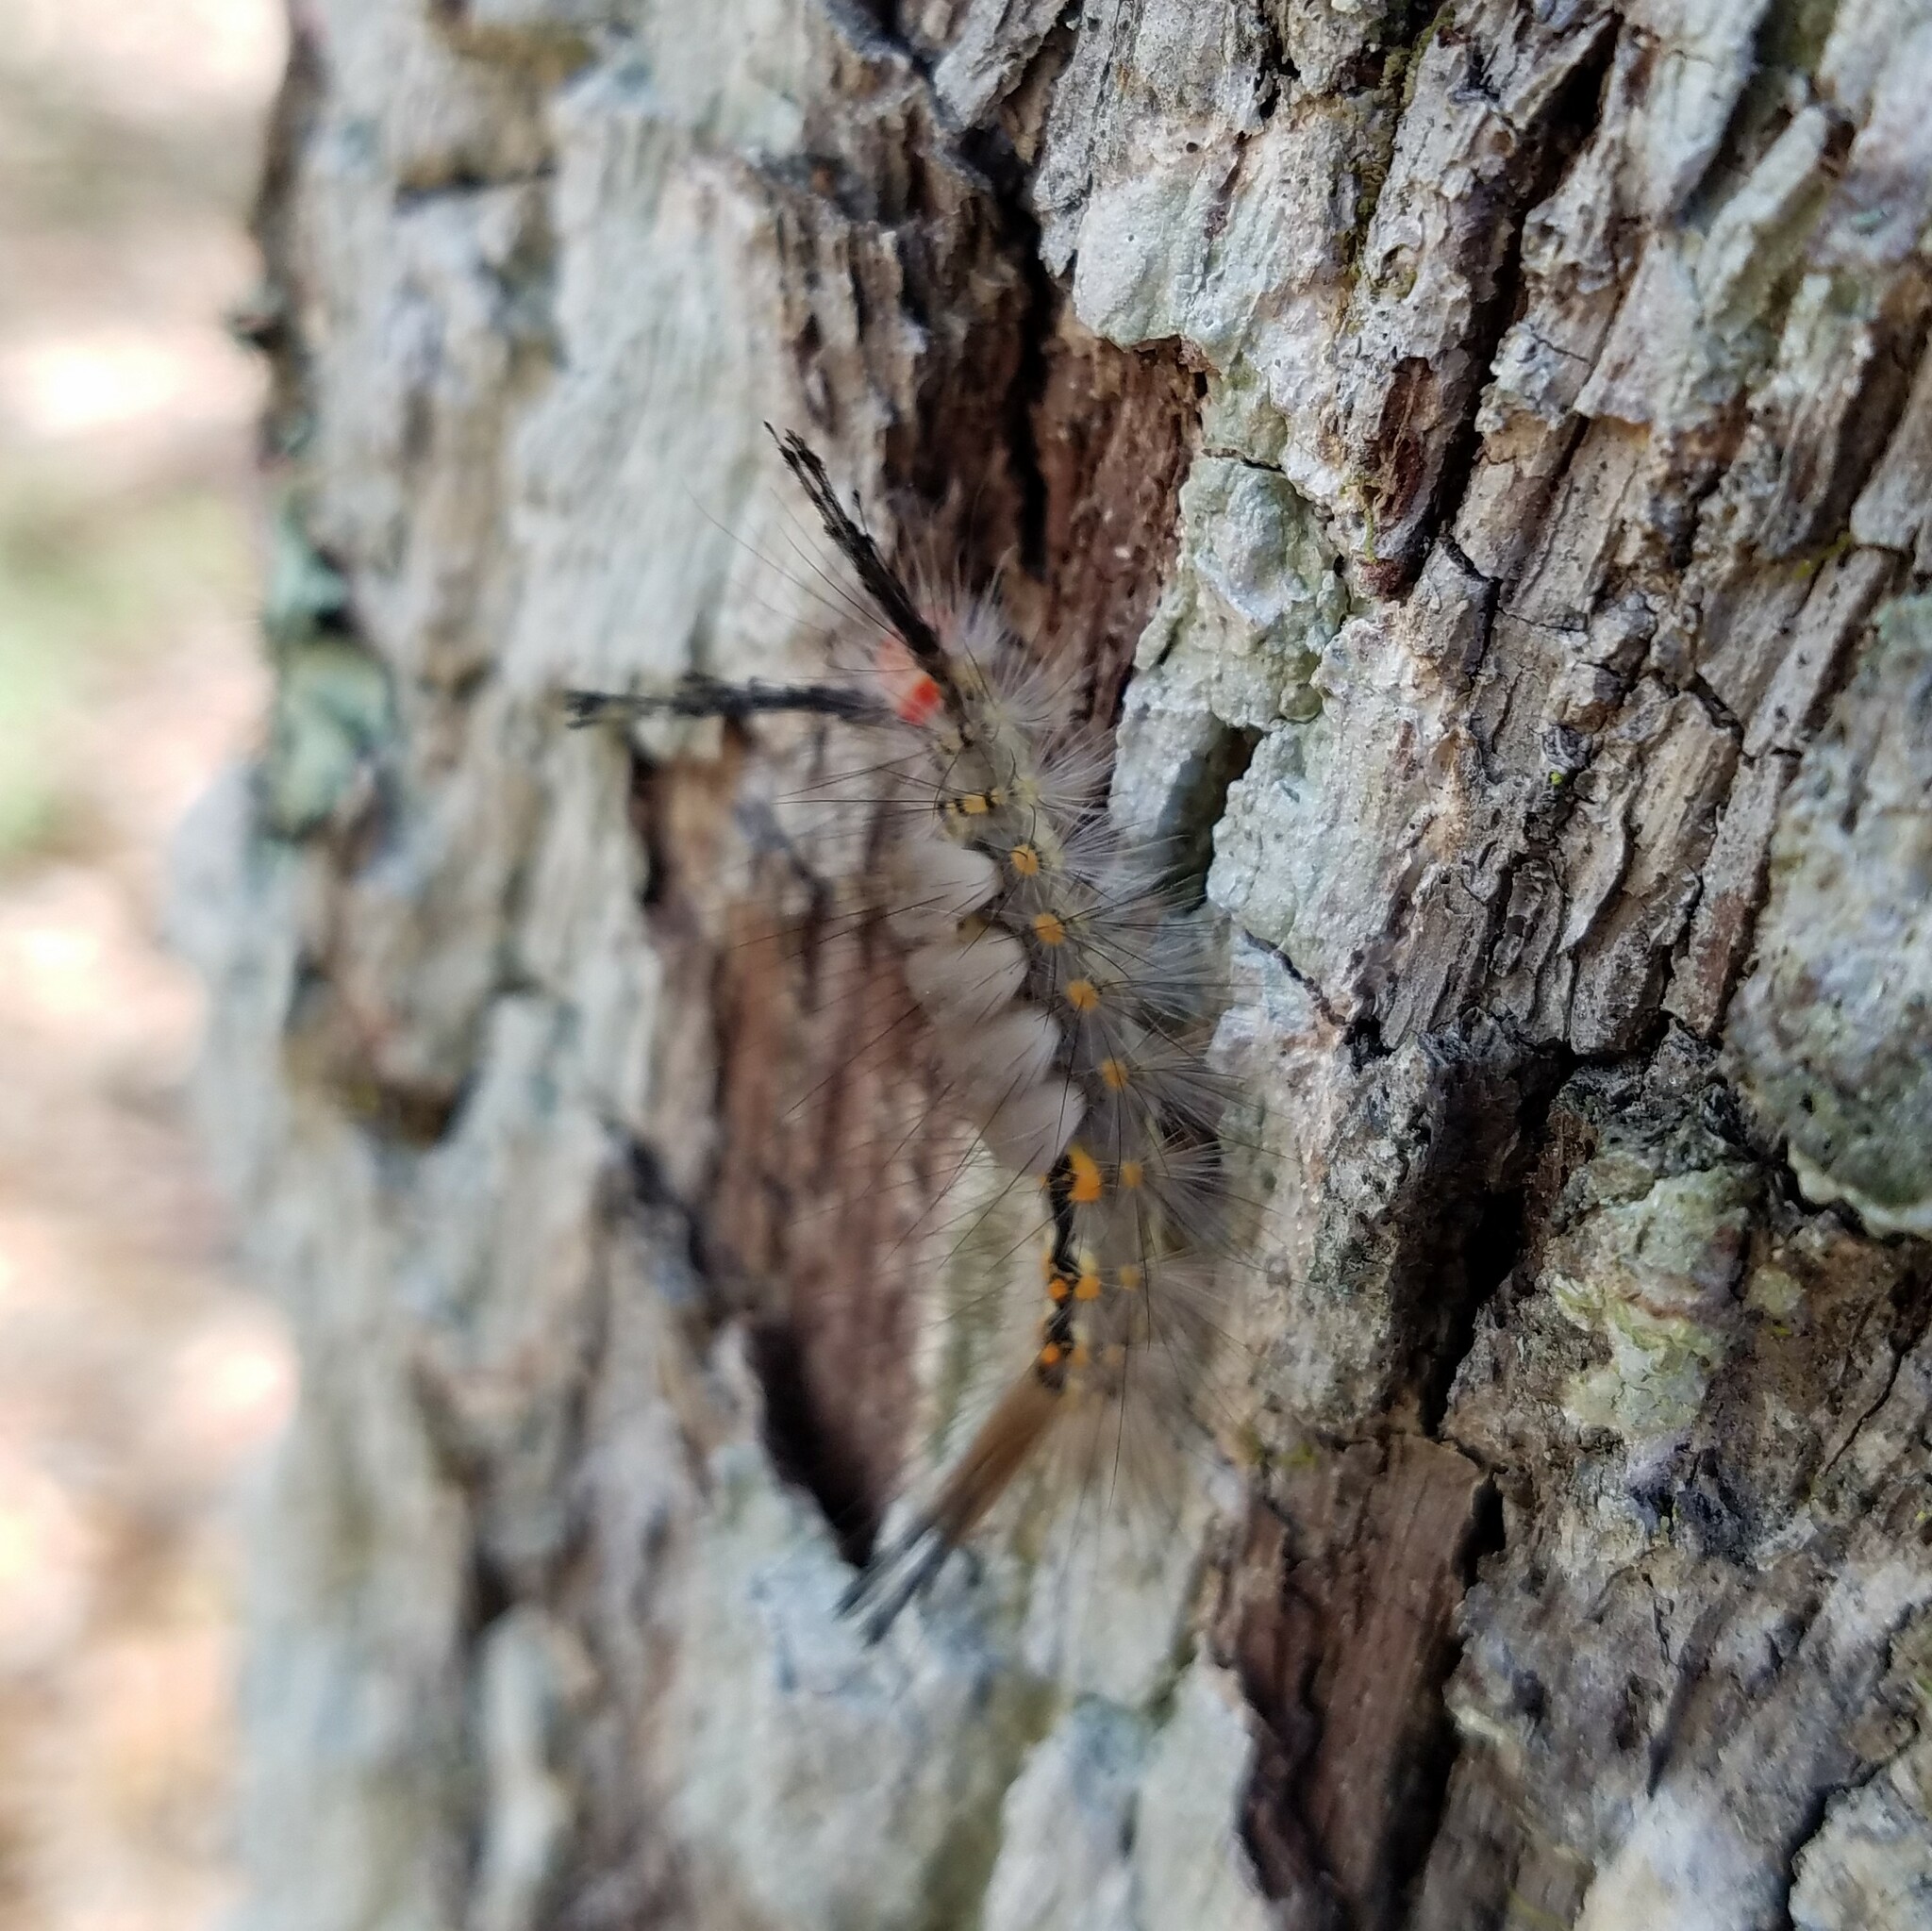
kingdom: Animalia
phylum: Arthropoda
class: Insecta
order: Lepidoptera
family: Erebidae
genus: Orgyia
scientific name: Orgyia detrita
